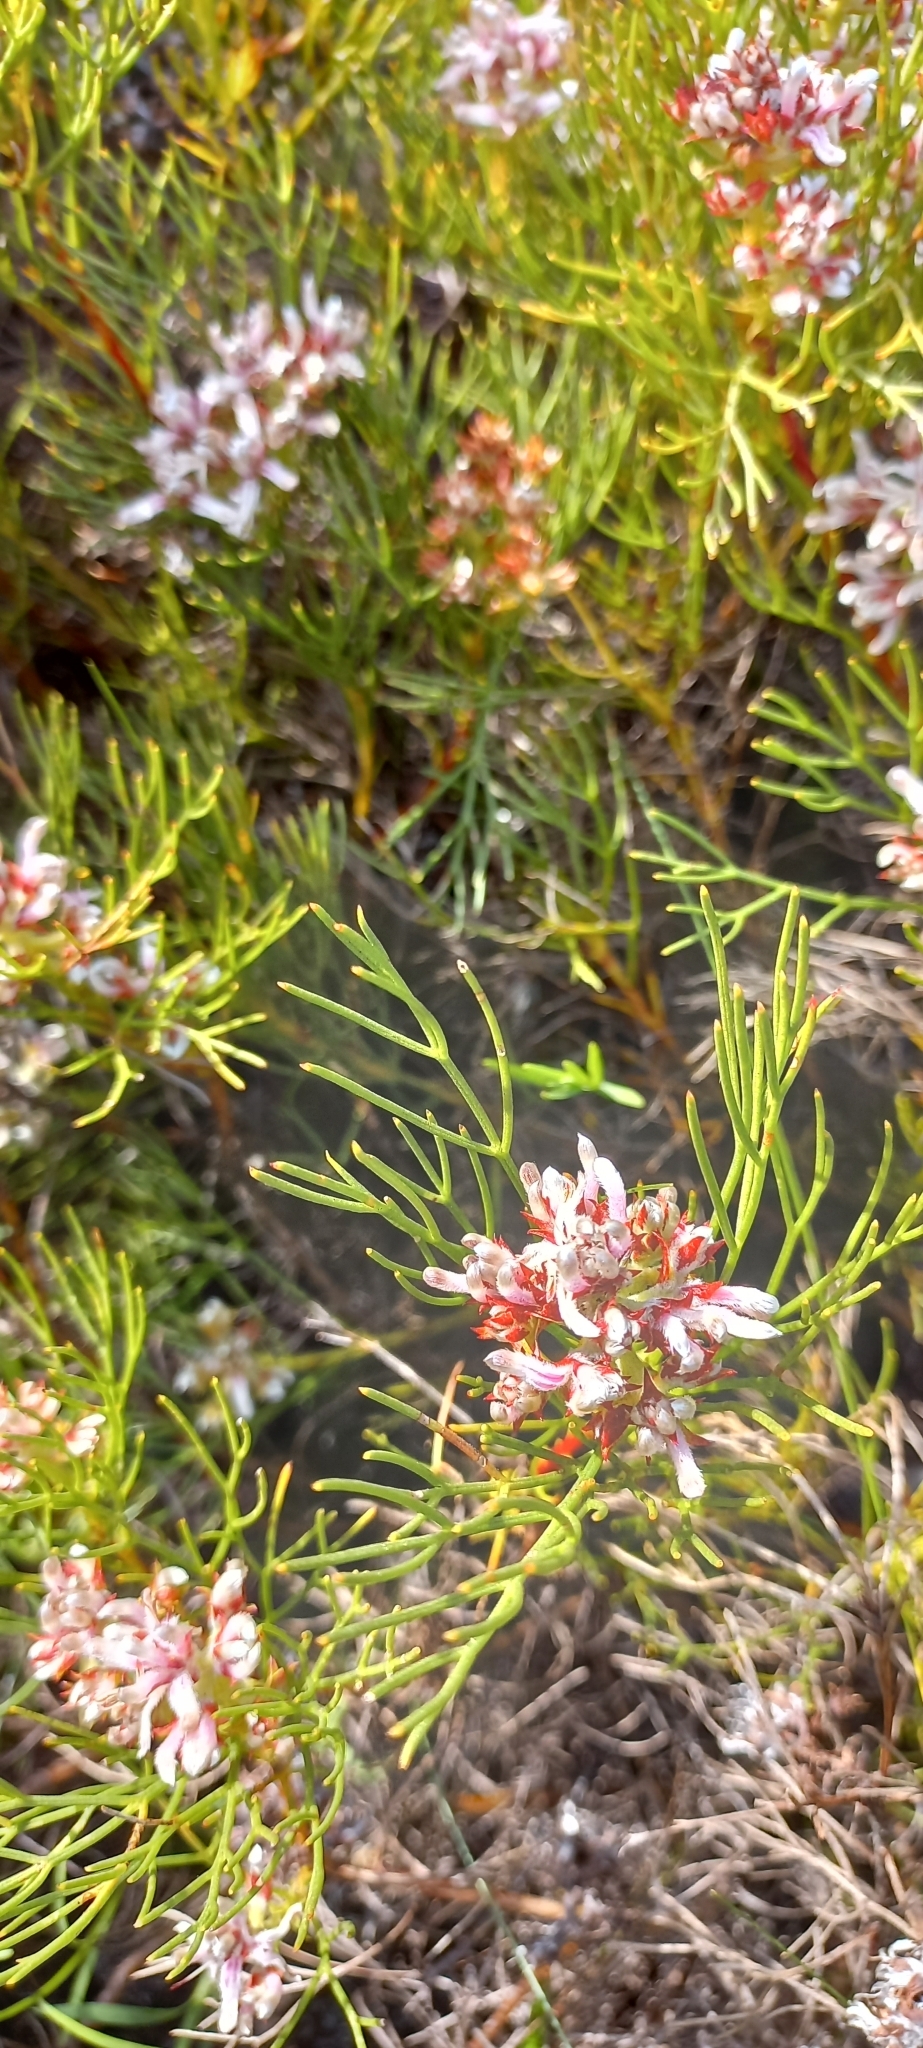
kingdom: Plantae
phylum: Tracheophyta
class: Magnoliopsida
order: Proteales
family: Proteaceae
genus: Serruria
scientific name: Serruria rubricaulis
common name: Red-stem spiderhead
